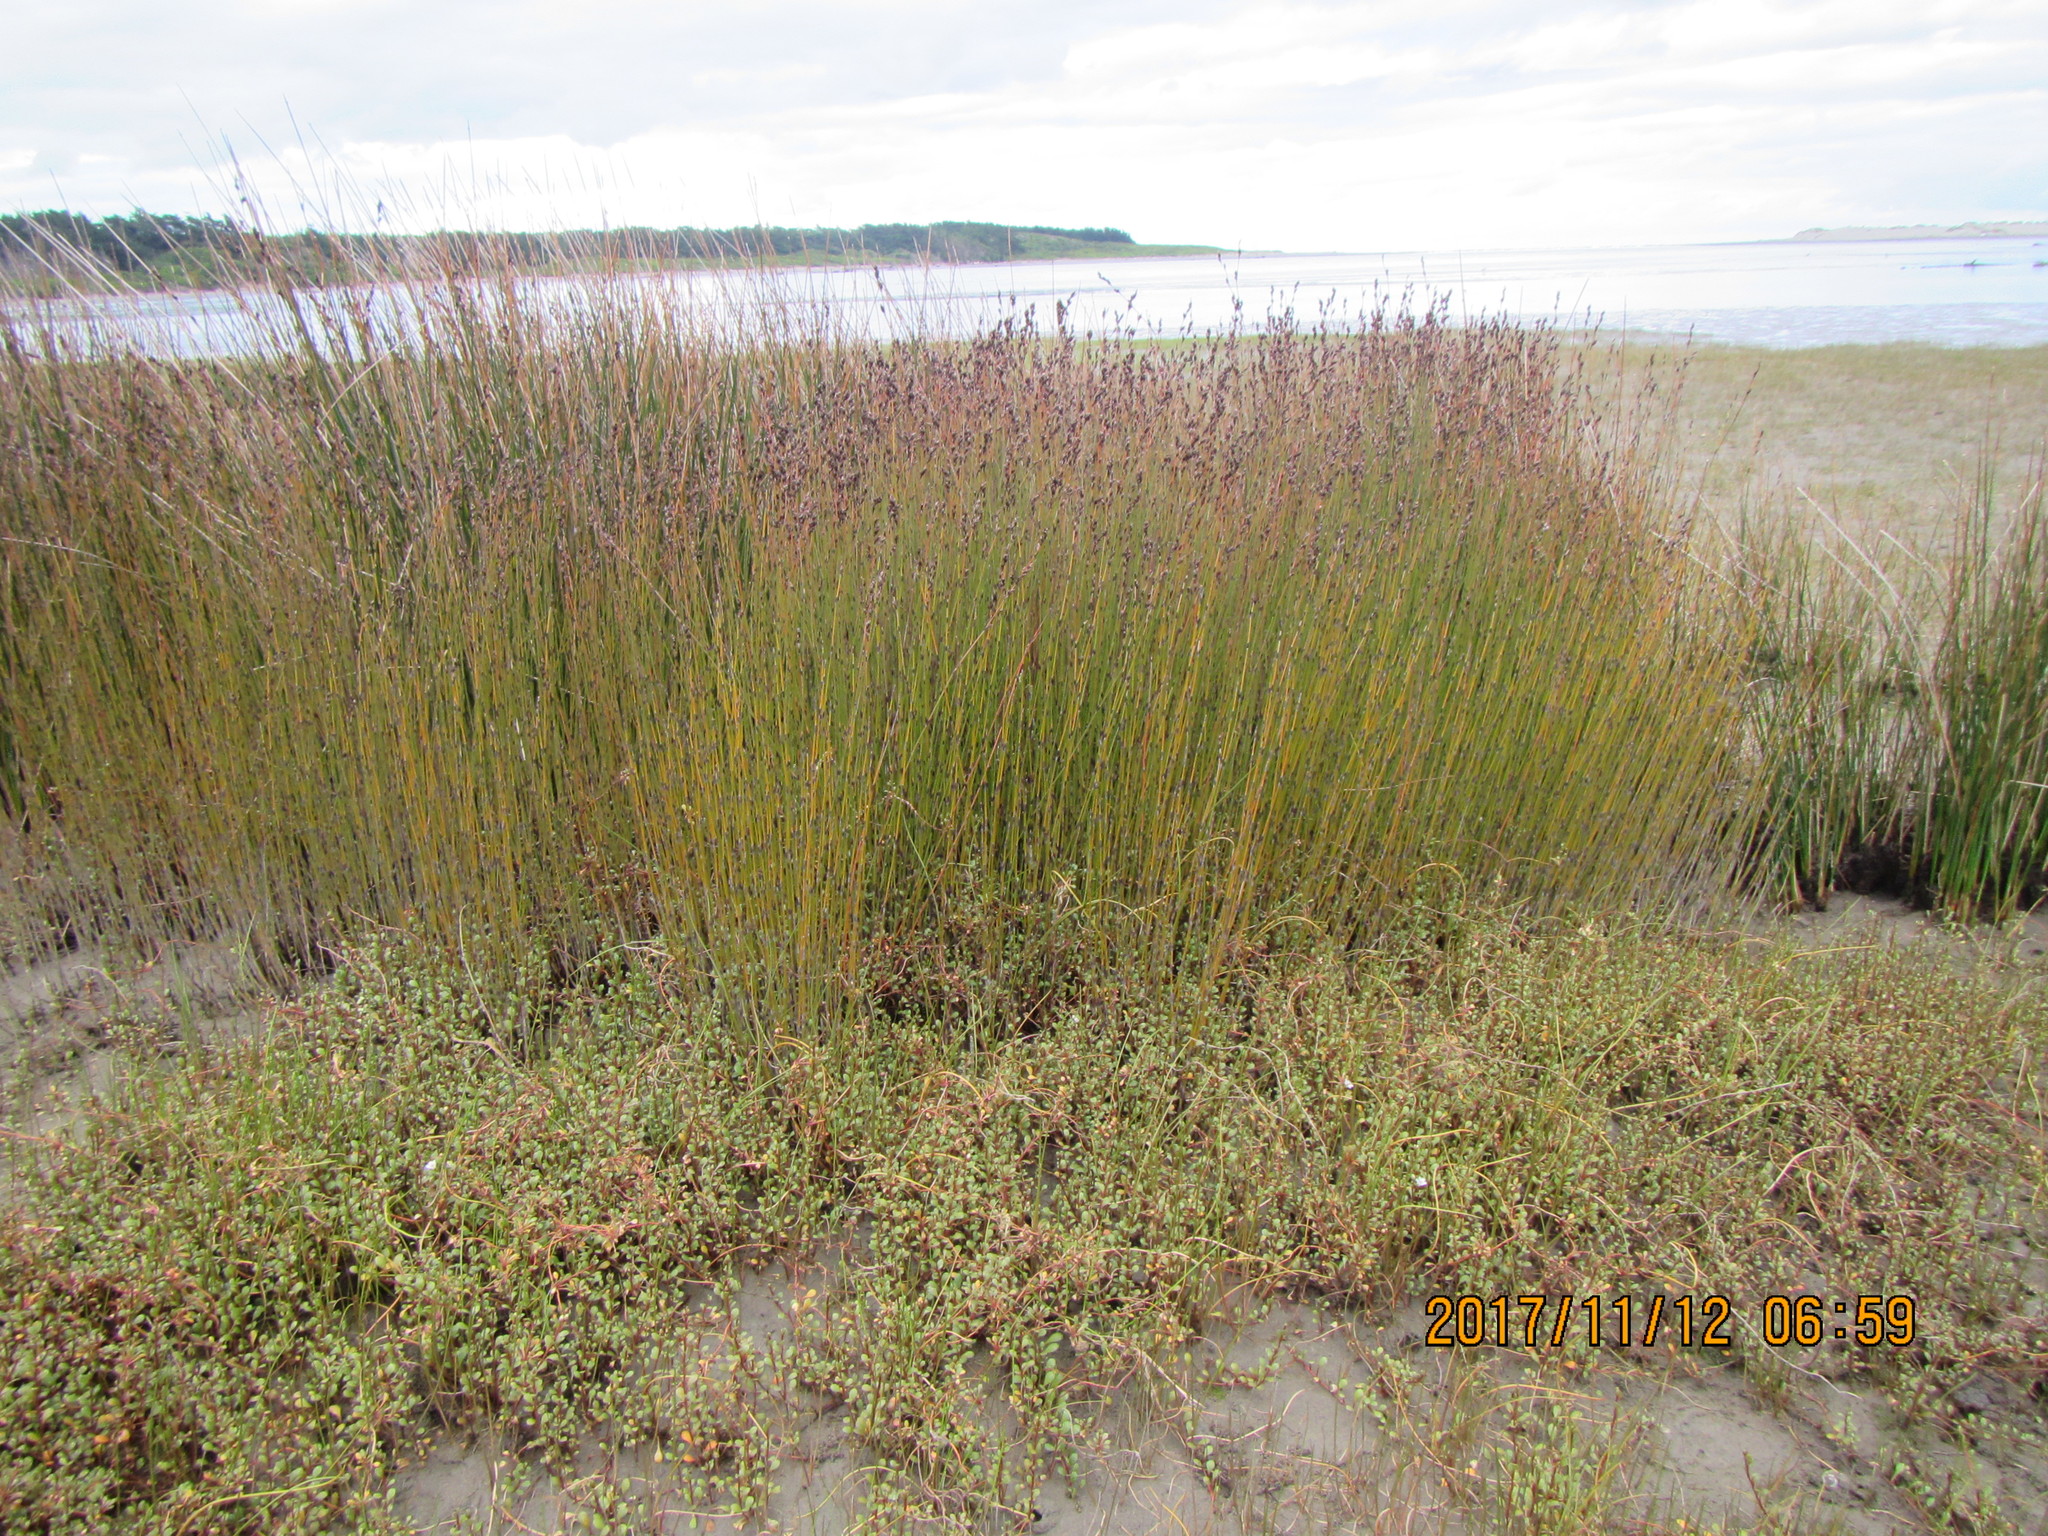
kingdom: Plantae
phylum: Tracheophyta
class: Liliopsida
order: Poales
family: Restionaceae
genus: Apodasmia
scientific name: Apodasmia similis
